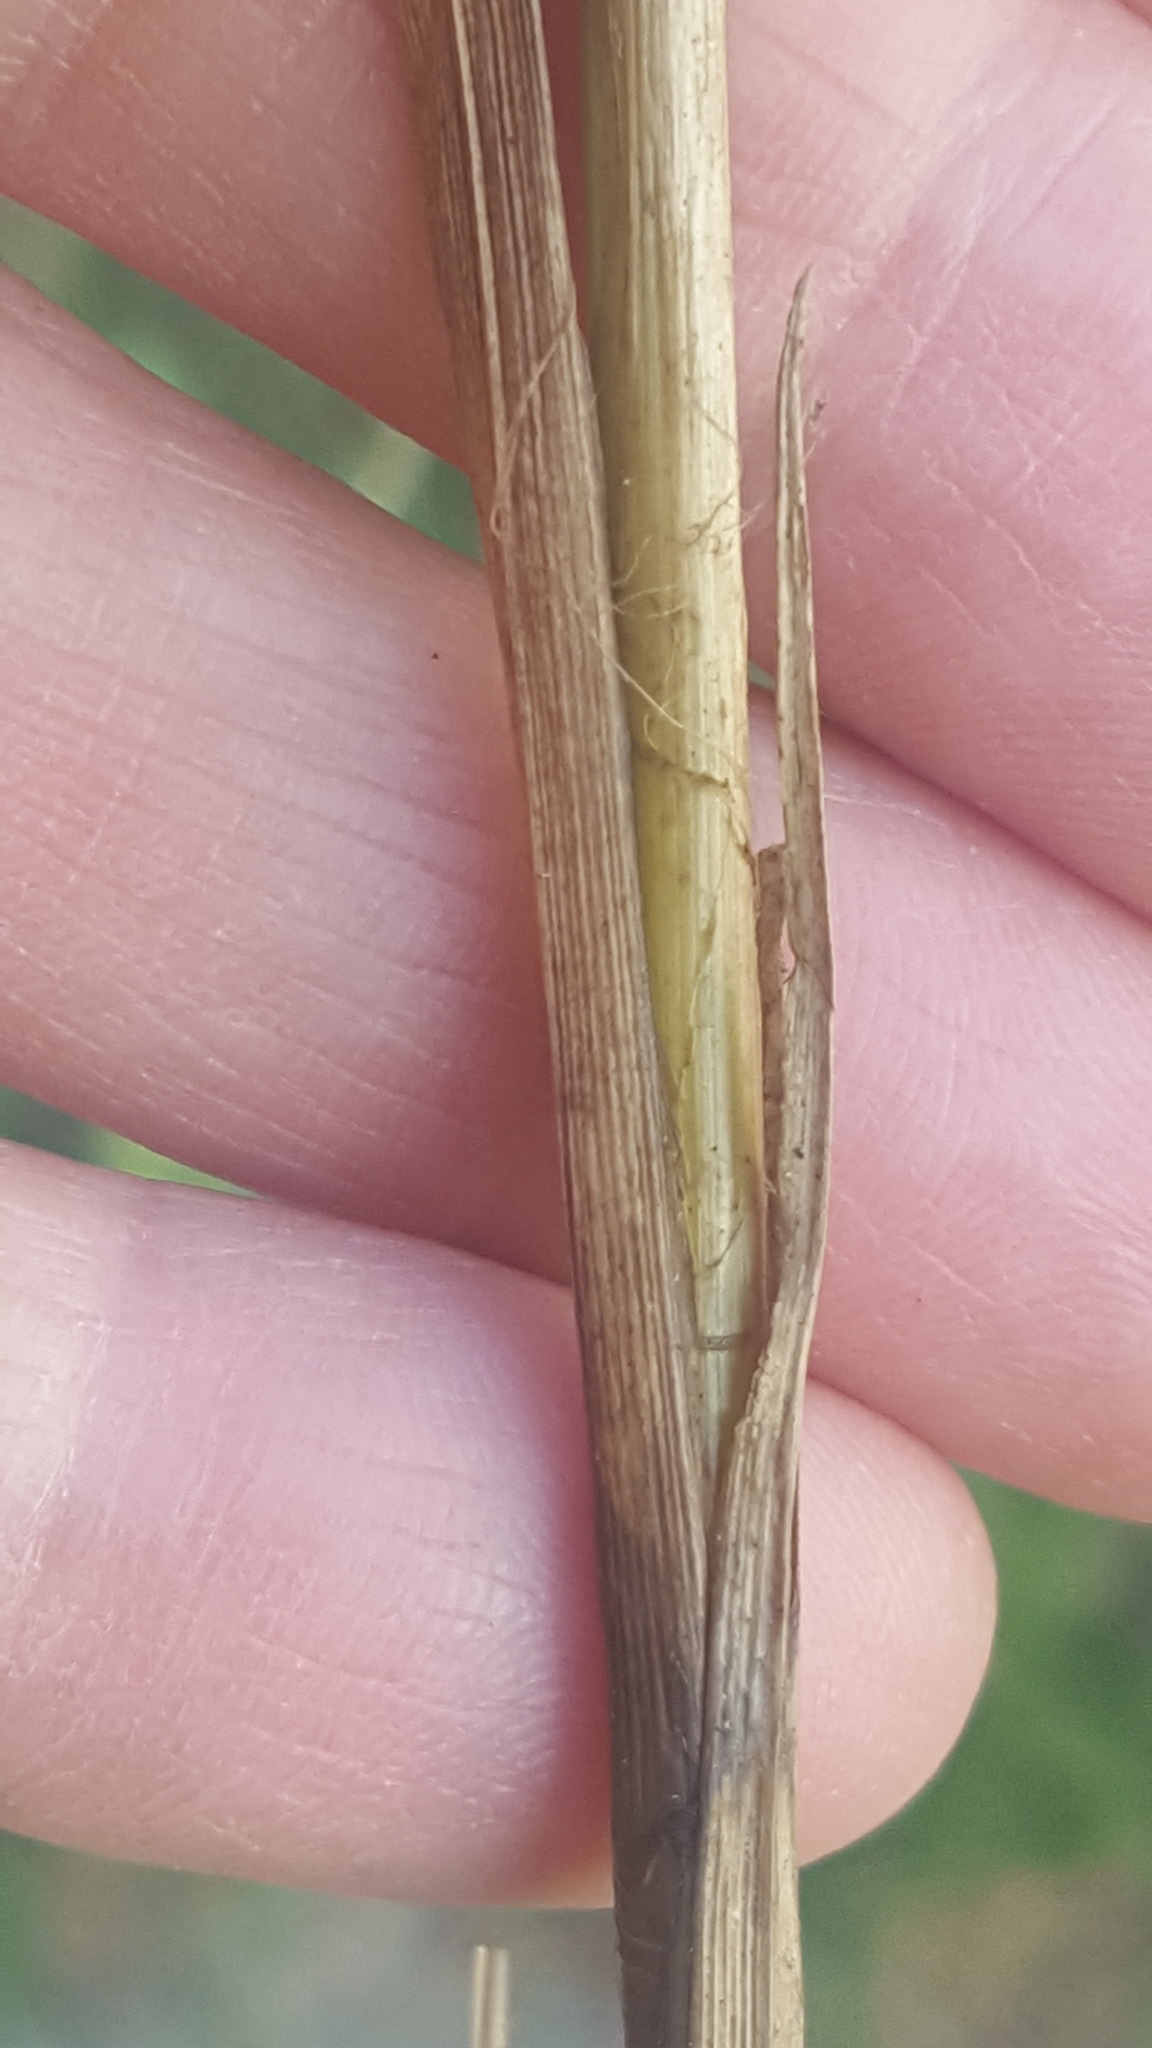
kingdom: Plantae
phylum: Tracheophyta
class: Liliopsida
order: Poales
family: Cyperaceae
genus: Carex
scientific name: Carex vesicaria
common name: Bladder-sedge
